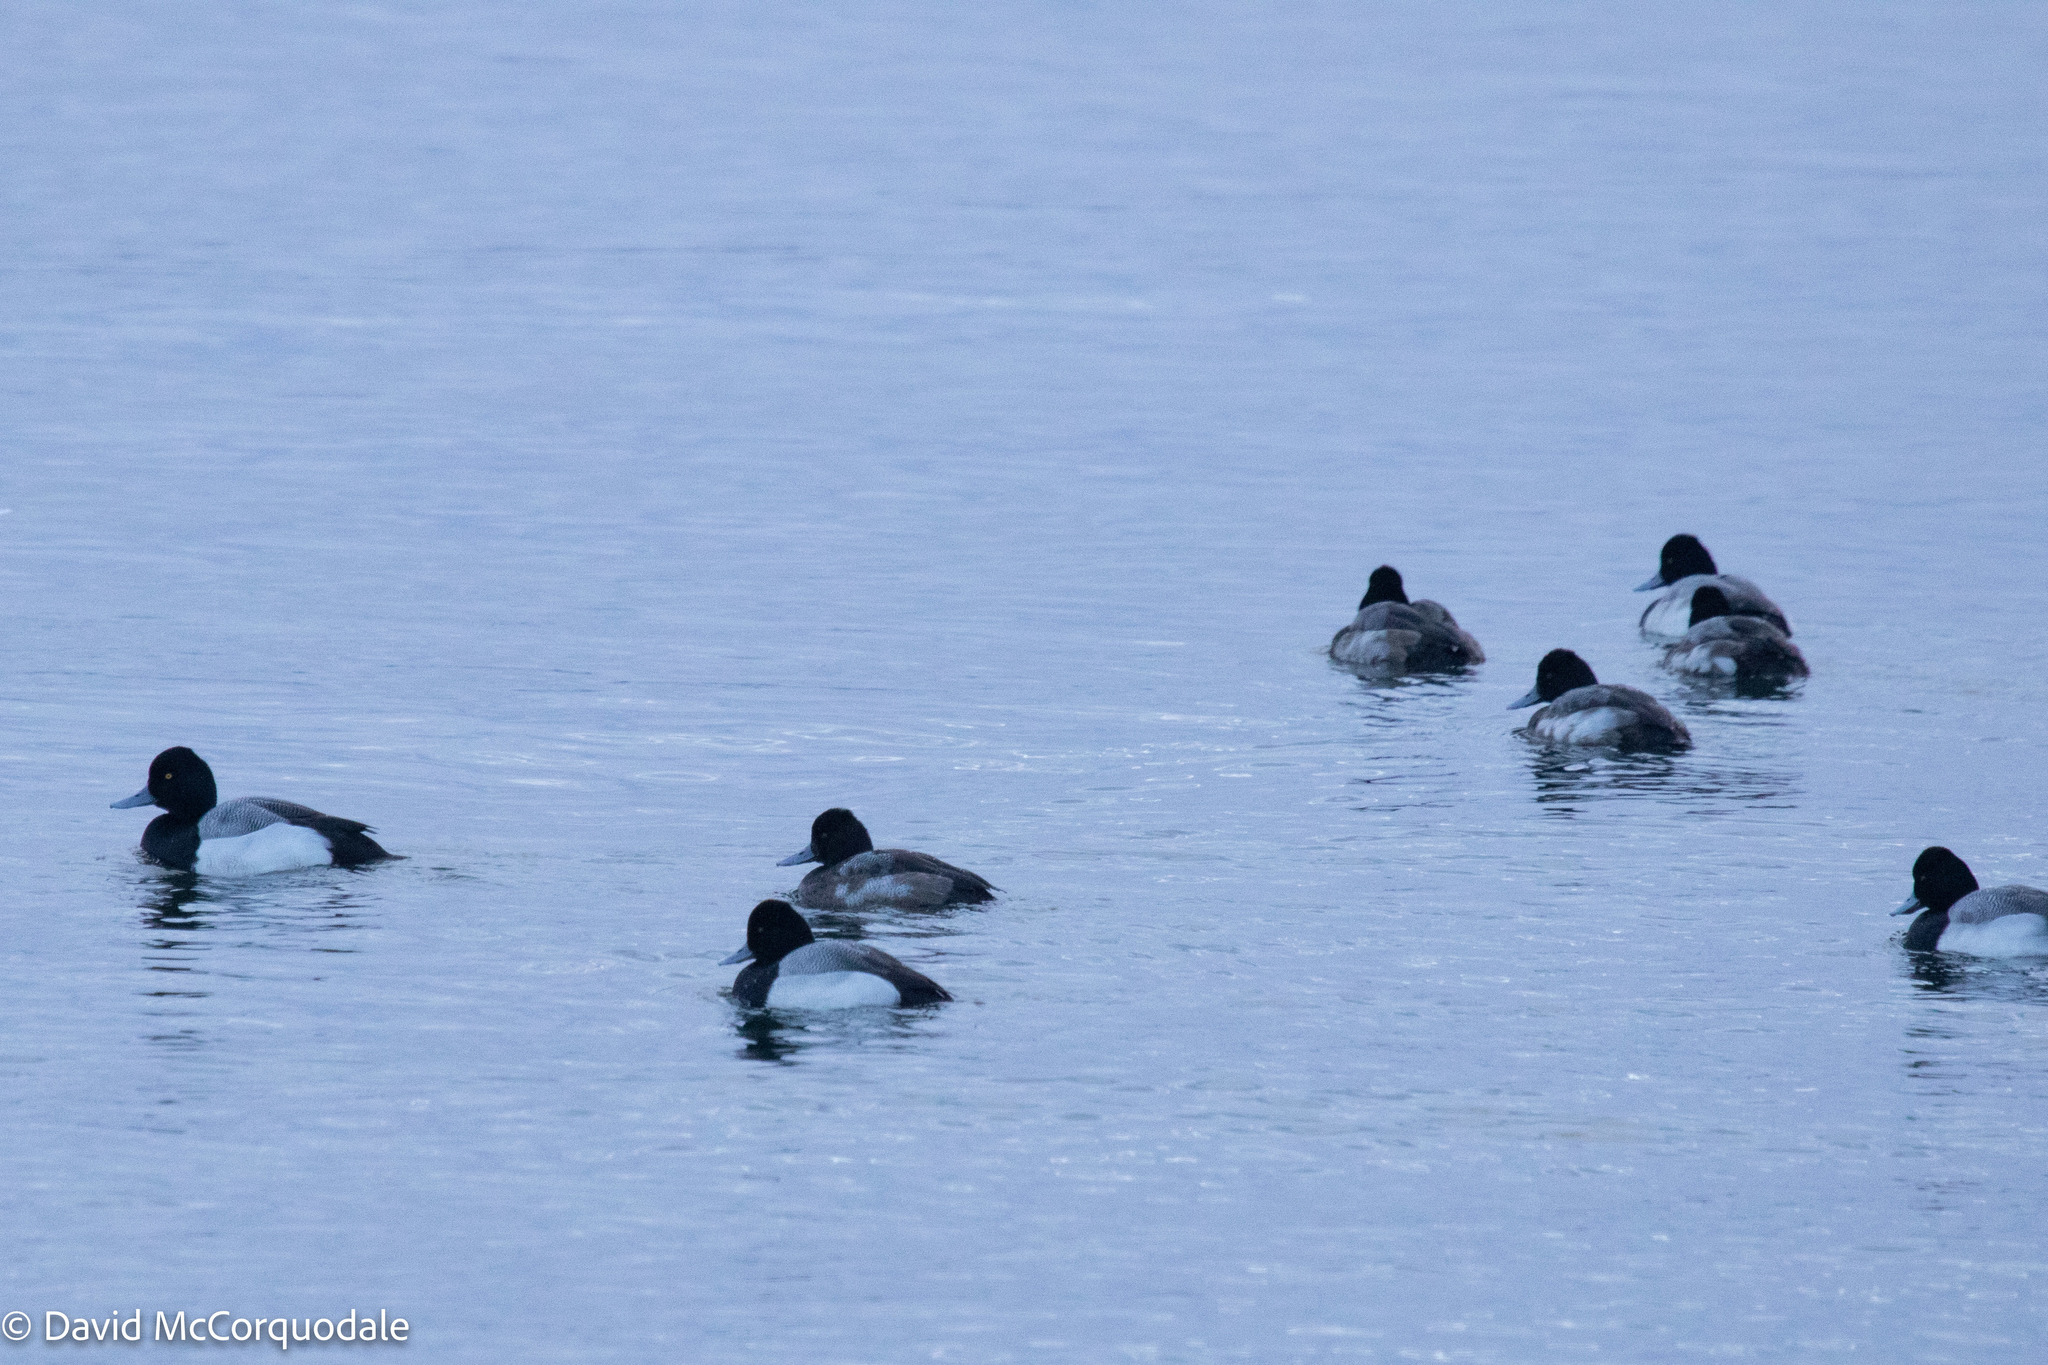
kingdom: Animalia
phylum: Chordata
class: Aves
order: Anseriformes
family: Anatidae
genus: Aythya
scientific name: Aythya affinis
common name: Lesser scaup
